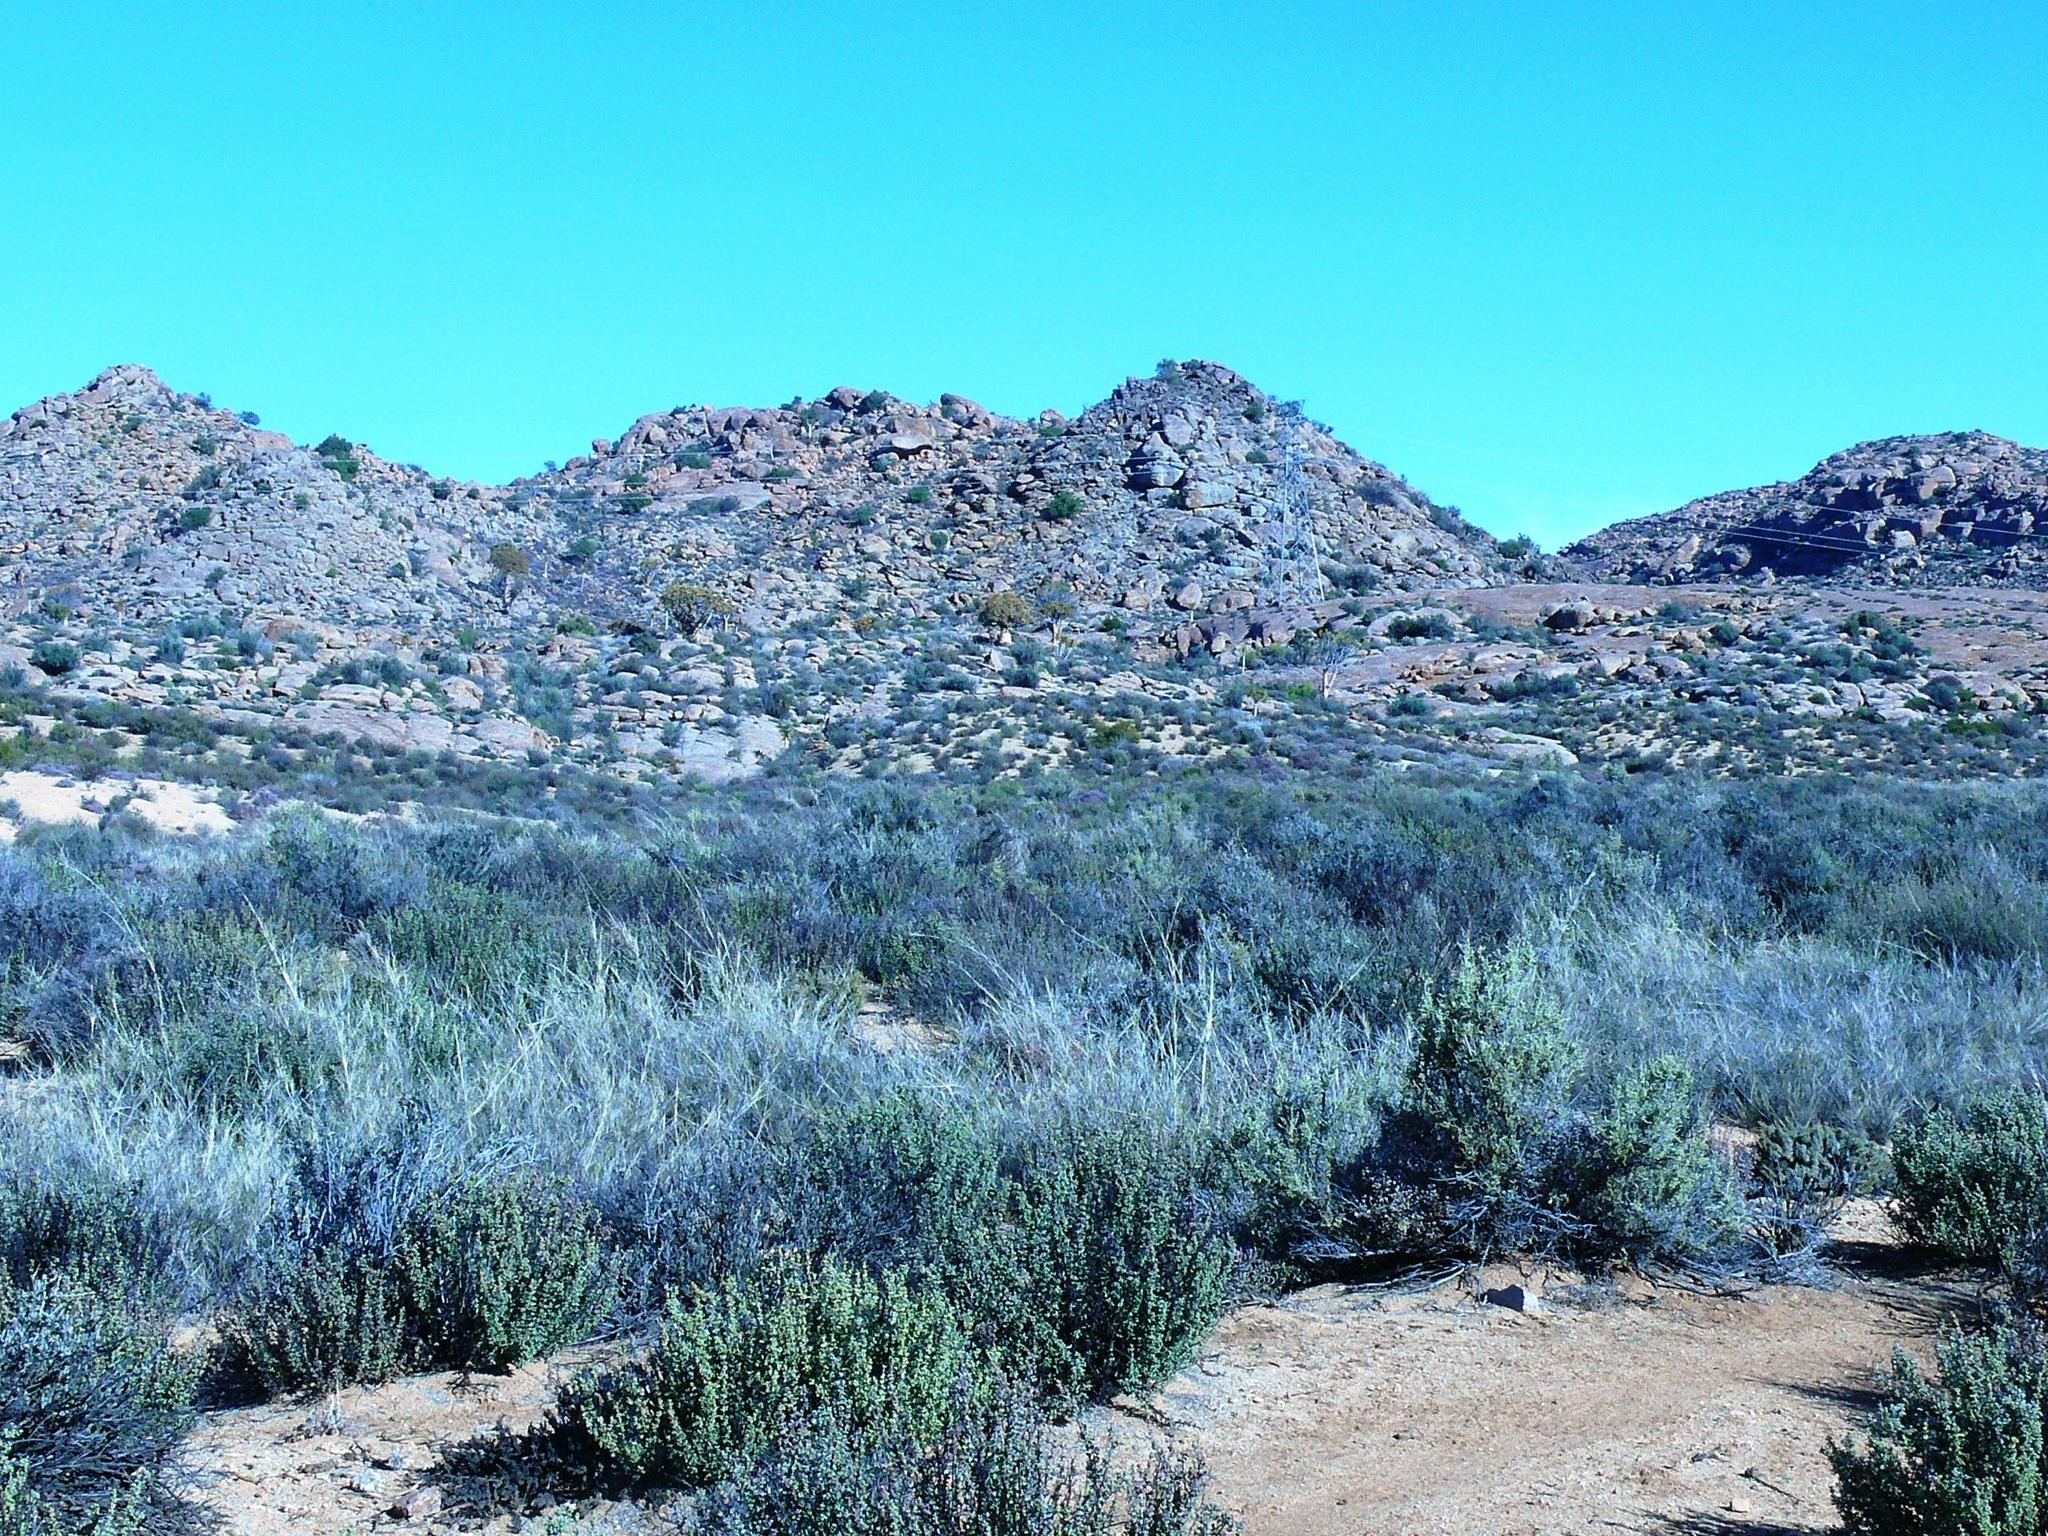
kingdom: Plantae
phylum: Tracheophyta
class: Liliopsida
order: Asparagales
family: Asphodelaceae
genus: Aloidendron
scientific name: Aloidendron dichotomum
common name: Quiver tree
